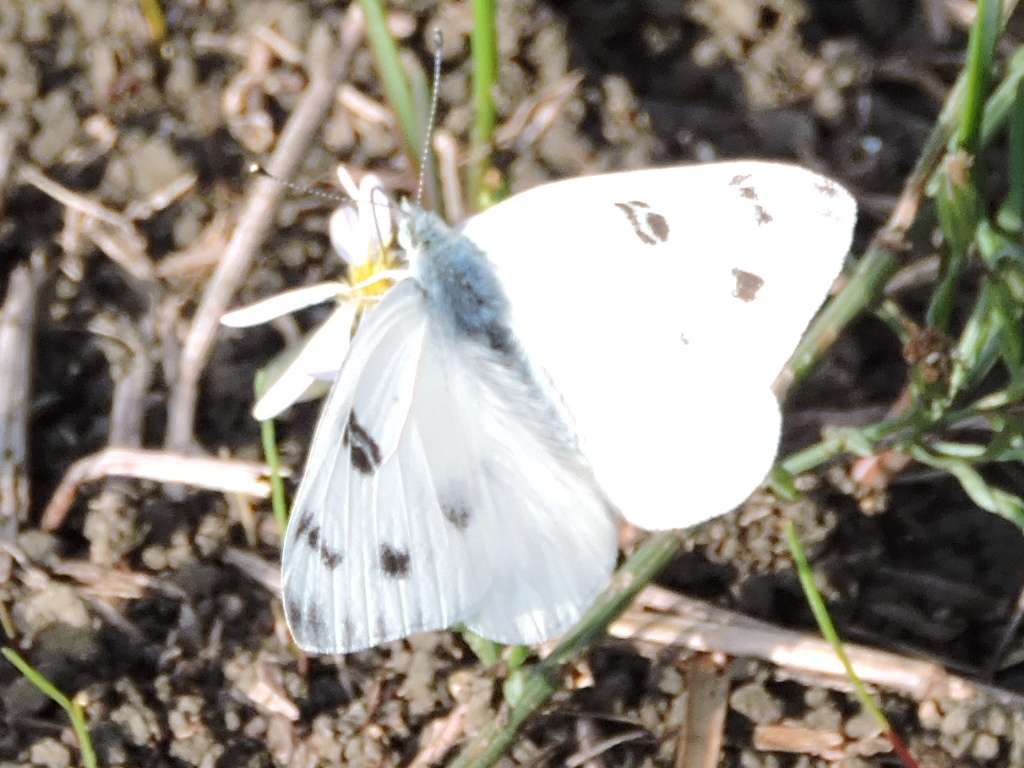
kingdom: Animalia
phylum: Arthropoda
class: Insecta
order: Lepidoptera
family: Pieridae
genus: Pontia
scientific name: Pontia protodice
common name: Checkered white
